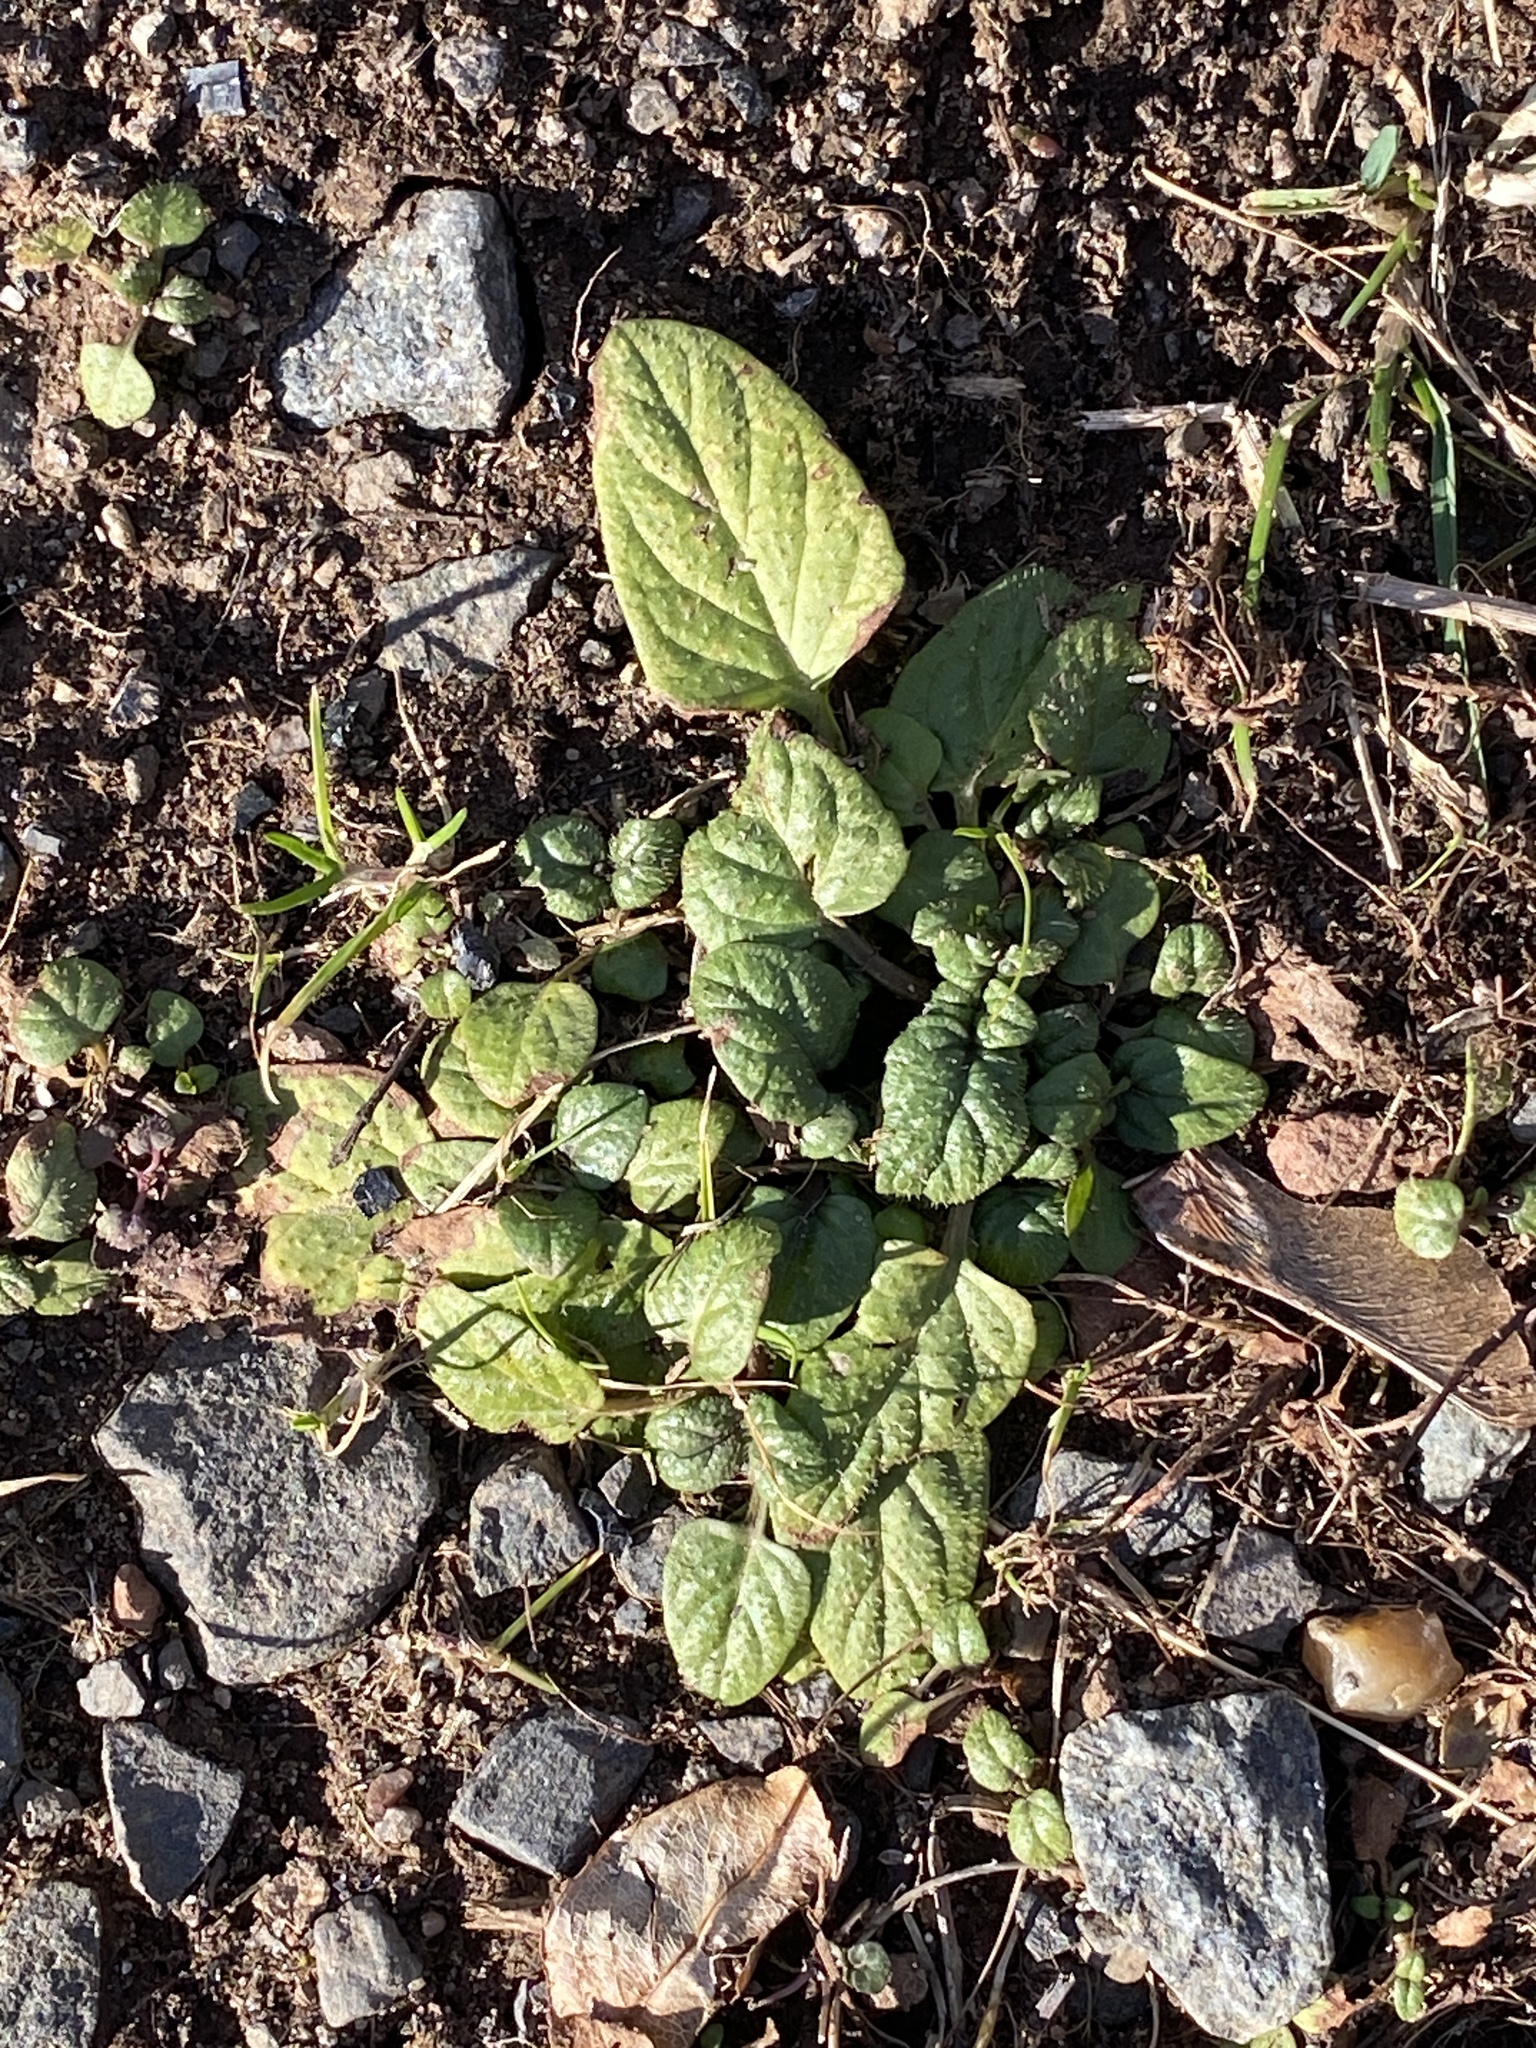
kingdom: Plantae
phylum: Tracheophyta
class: Magnoliopsida
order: Lamiales
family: Lamiaceae
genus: Prunella
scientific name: Prunella vulgaris
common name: Heal-all
